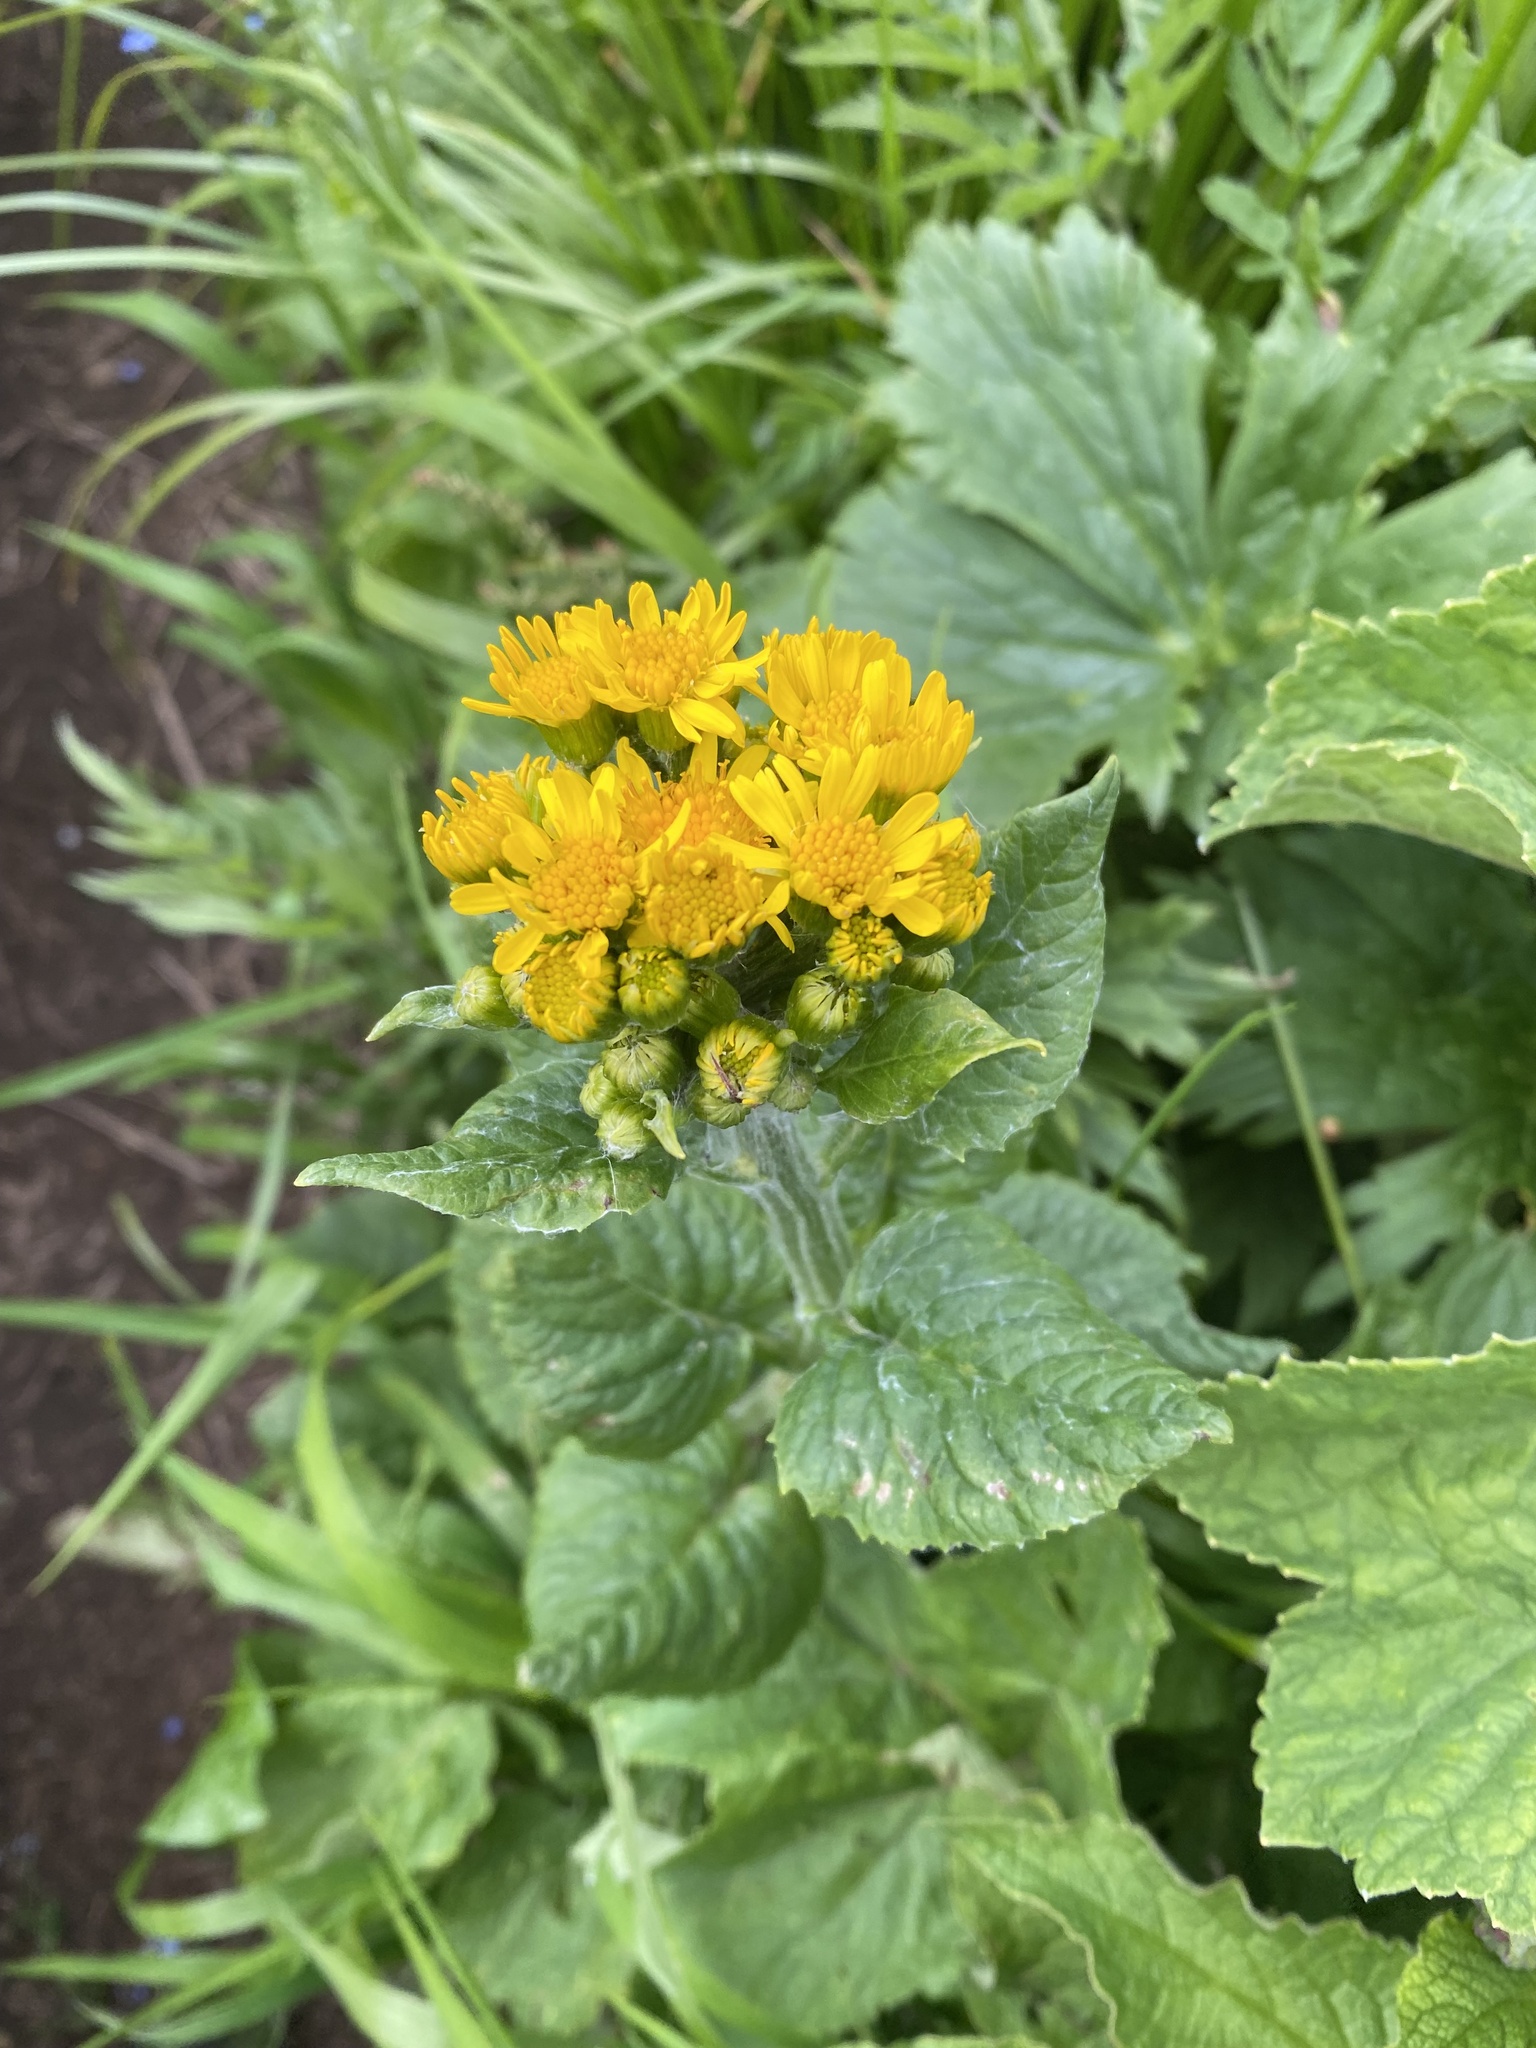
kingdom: Plantae
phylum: Tracheophyta
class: Magnoliopsida
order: Asterales
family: Asteraceae
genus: Tephroseris
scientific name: Tephroseris cladobotrys
